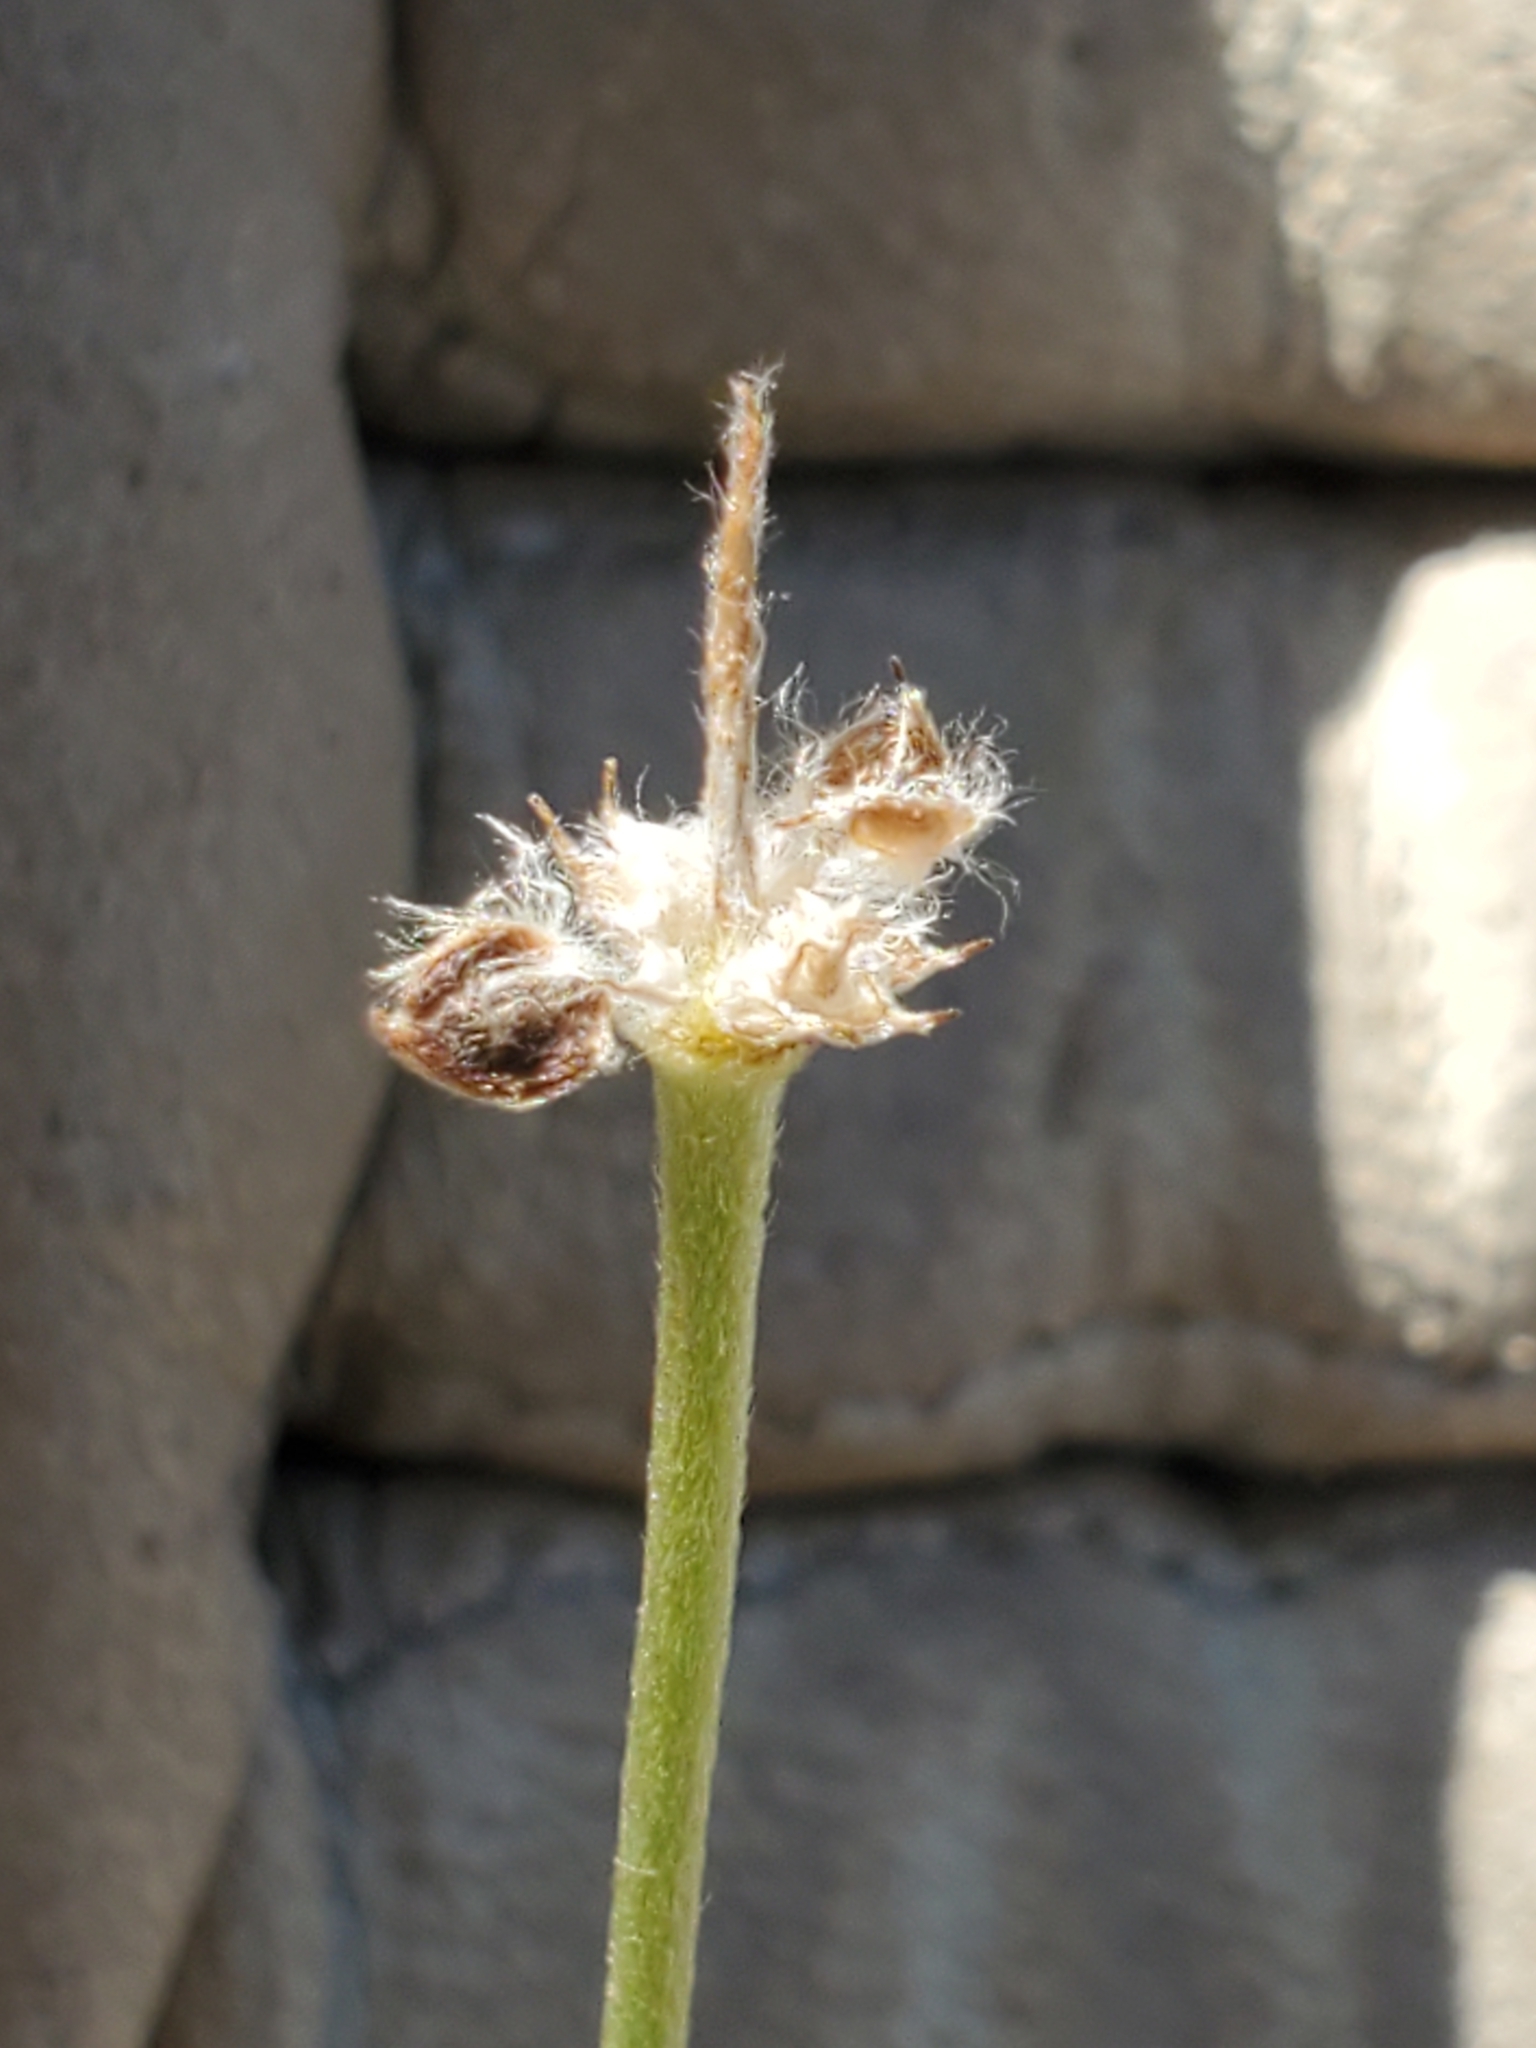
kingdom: Plantae
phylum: Tracheophyta
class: Magnoliopsida
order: Ranunculales
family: Ranunculaceae
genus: Anemone
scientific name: Anemone edwardsiana
